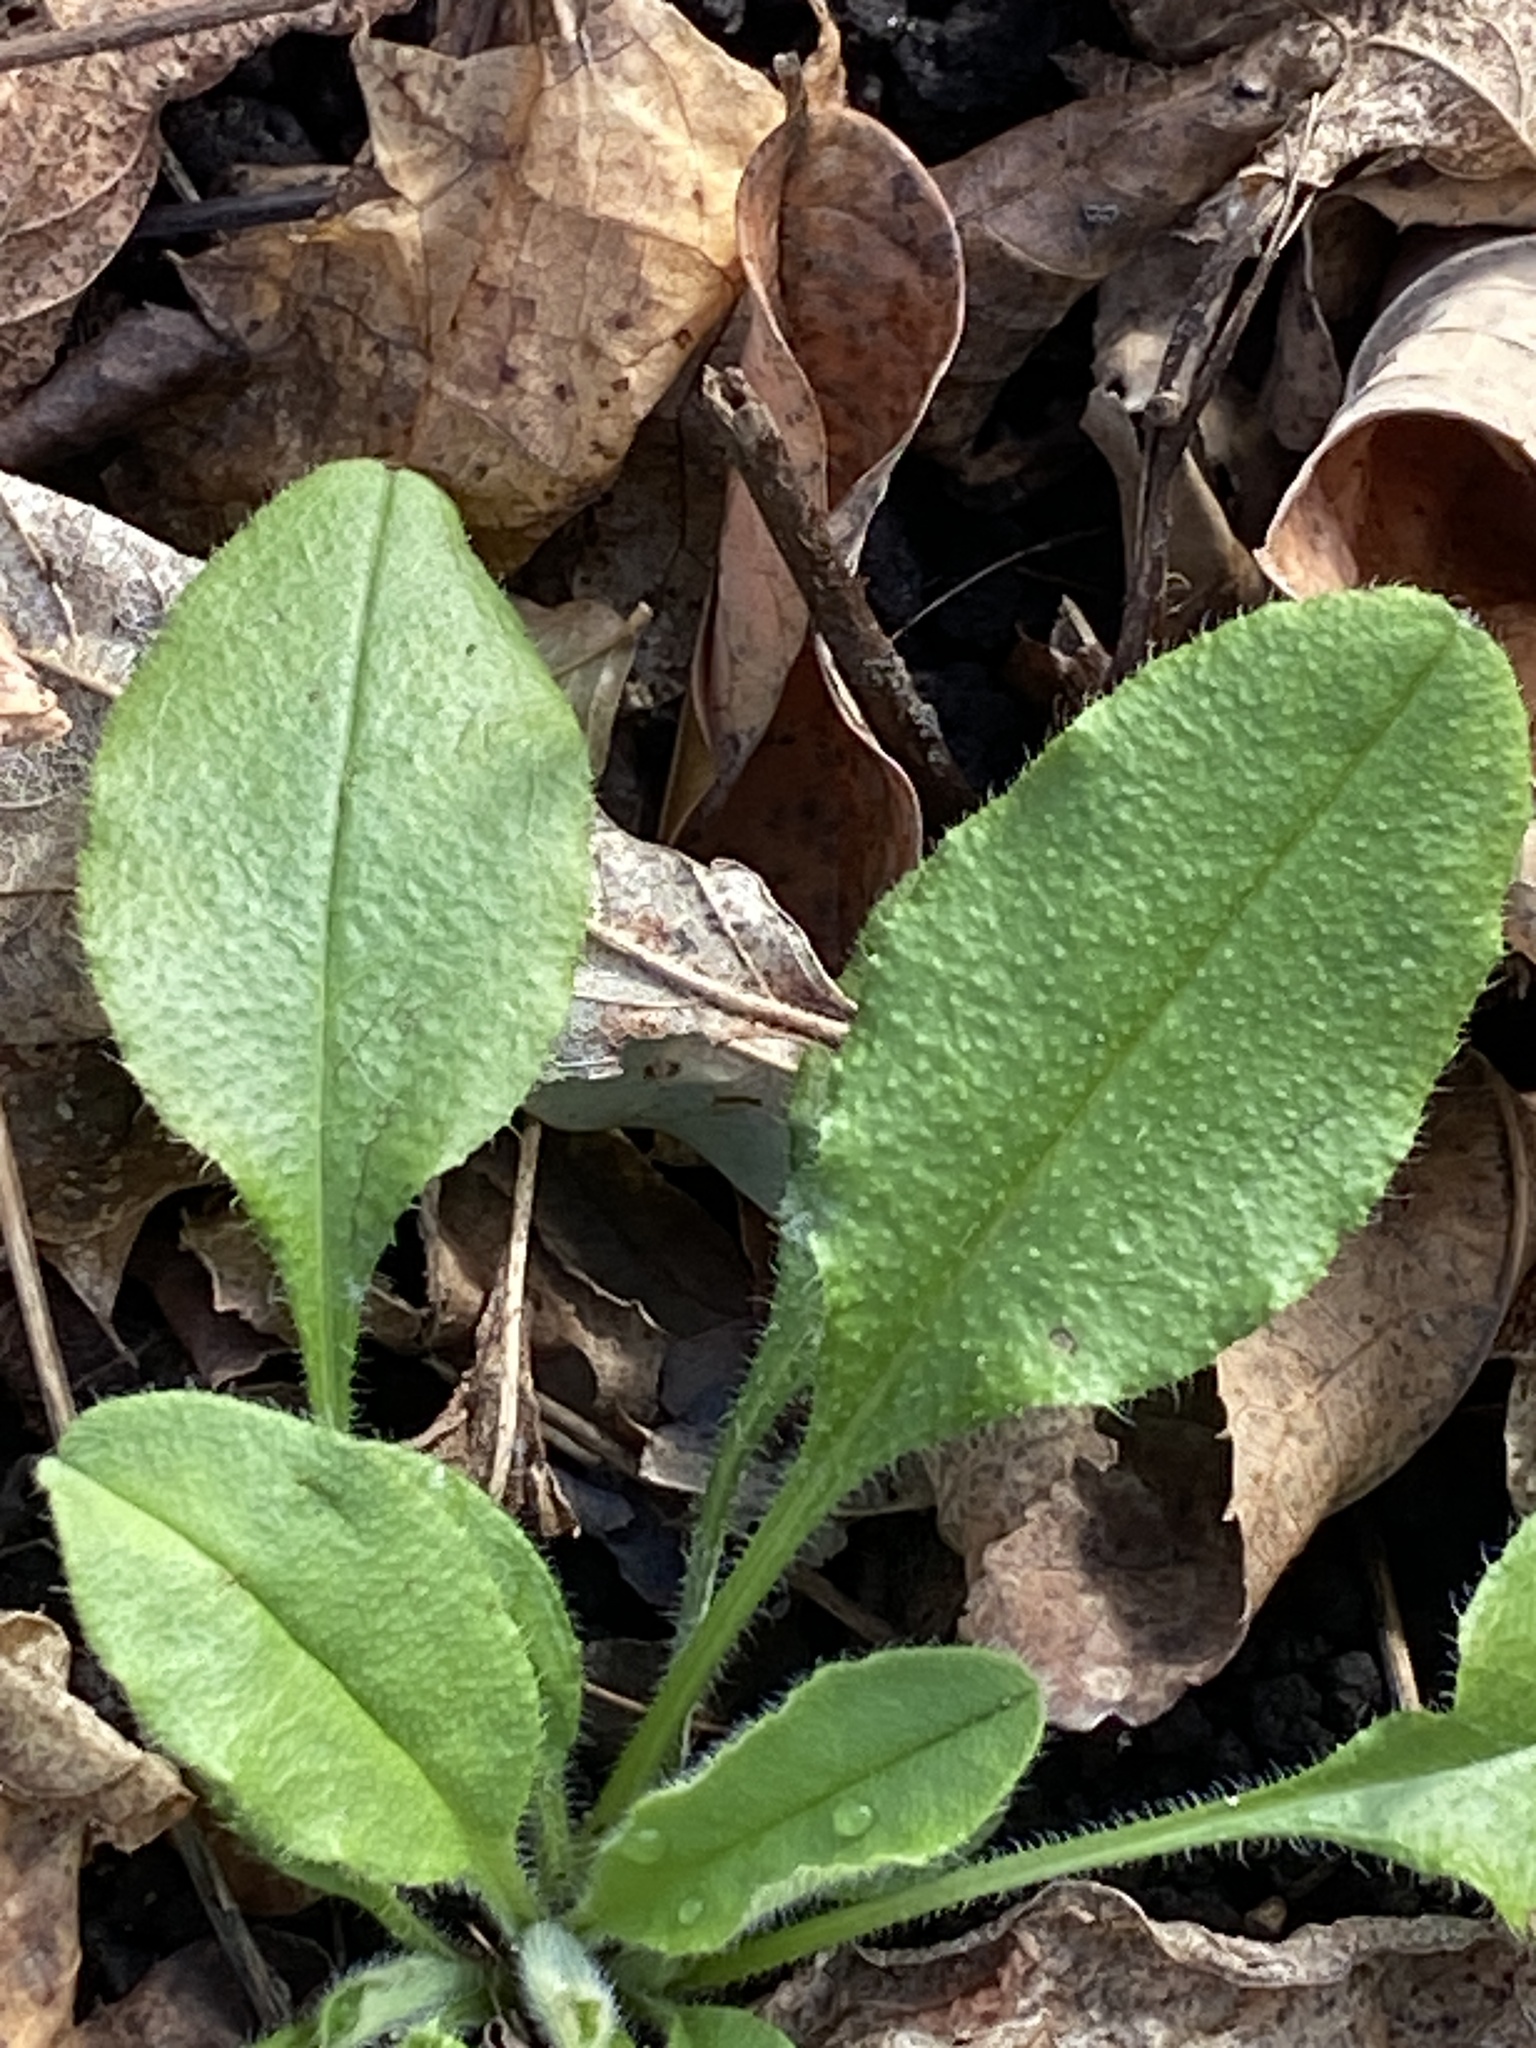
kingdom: Plantae
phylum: Tracheophyta
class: Magnoliopsida
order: Brassicales
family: Brassicaceae
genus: Hesperis
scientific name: Hesperis matronalis
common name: Dame's-violet
